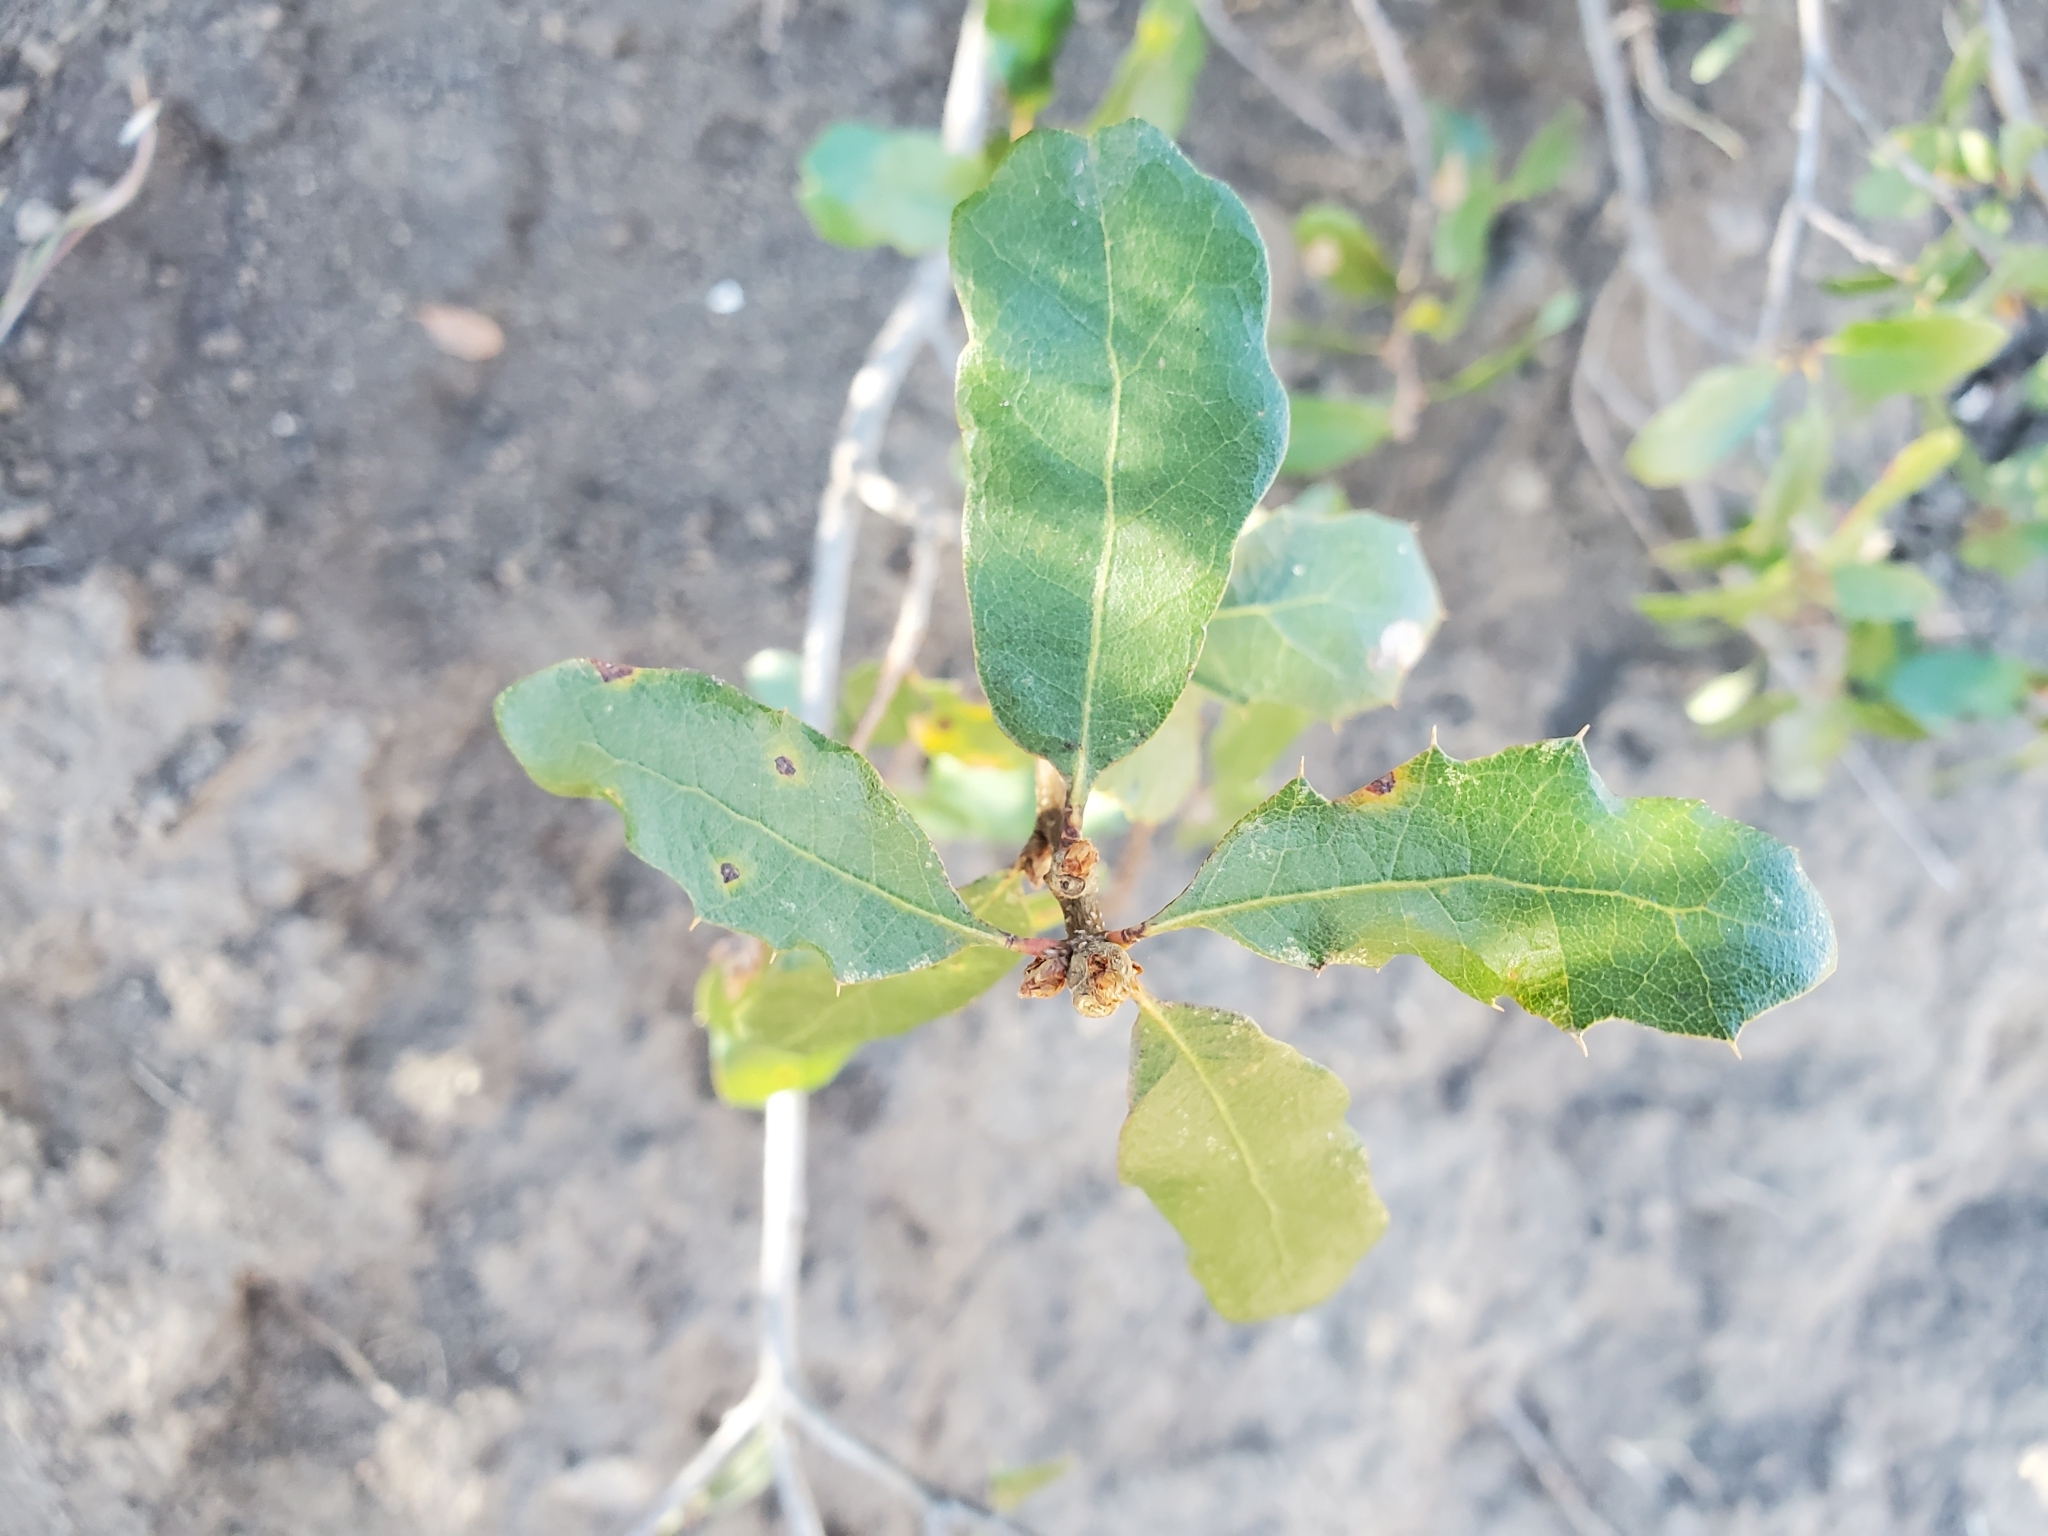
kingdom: Plantae
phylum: Tracheophyta
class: Magnoliopsida
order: Fagales
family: Fagaceae
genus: Quercus
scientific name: Quercus
